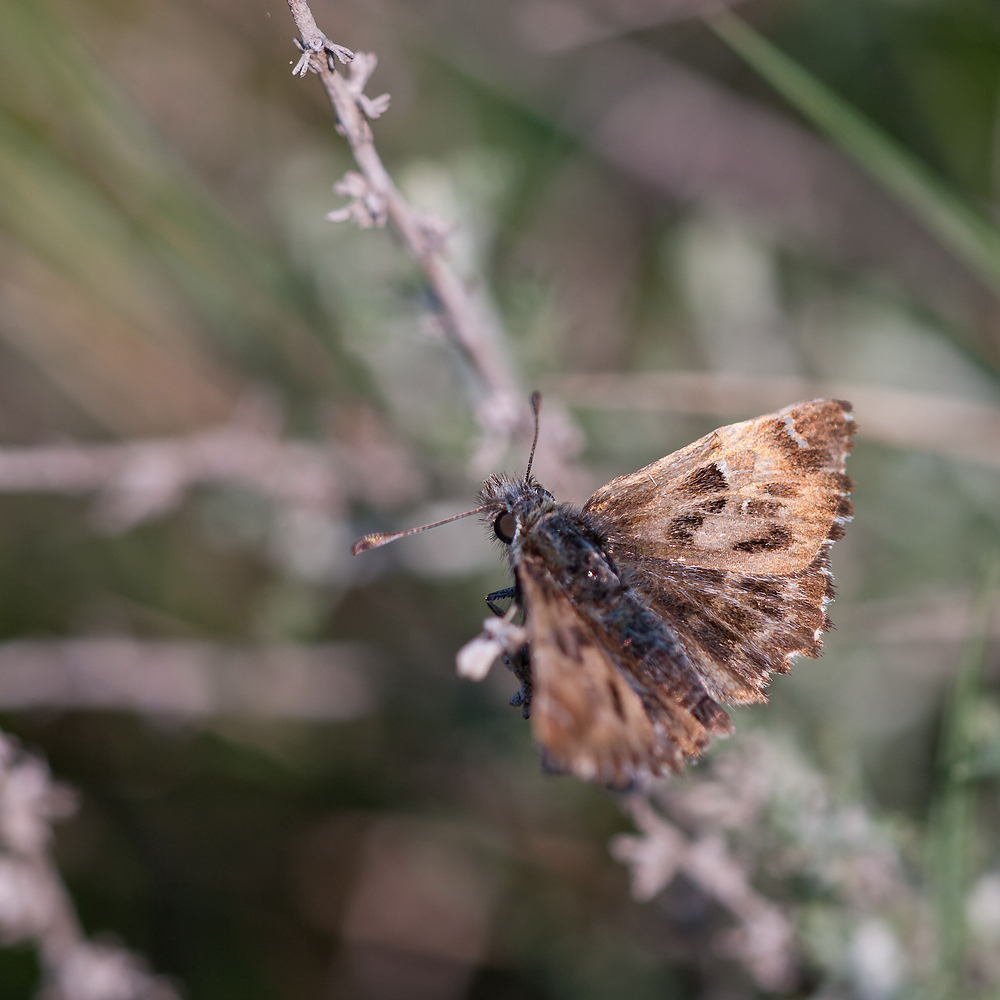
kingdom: Animalia
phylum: Arthropoda
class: Insecta
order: Lepidoptera
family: Hesperiidae
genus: Carcharodus
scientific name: Carcharodus alceae
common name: Mallow skipper
